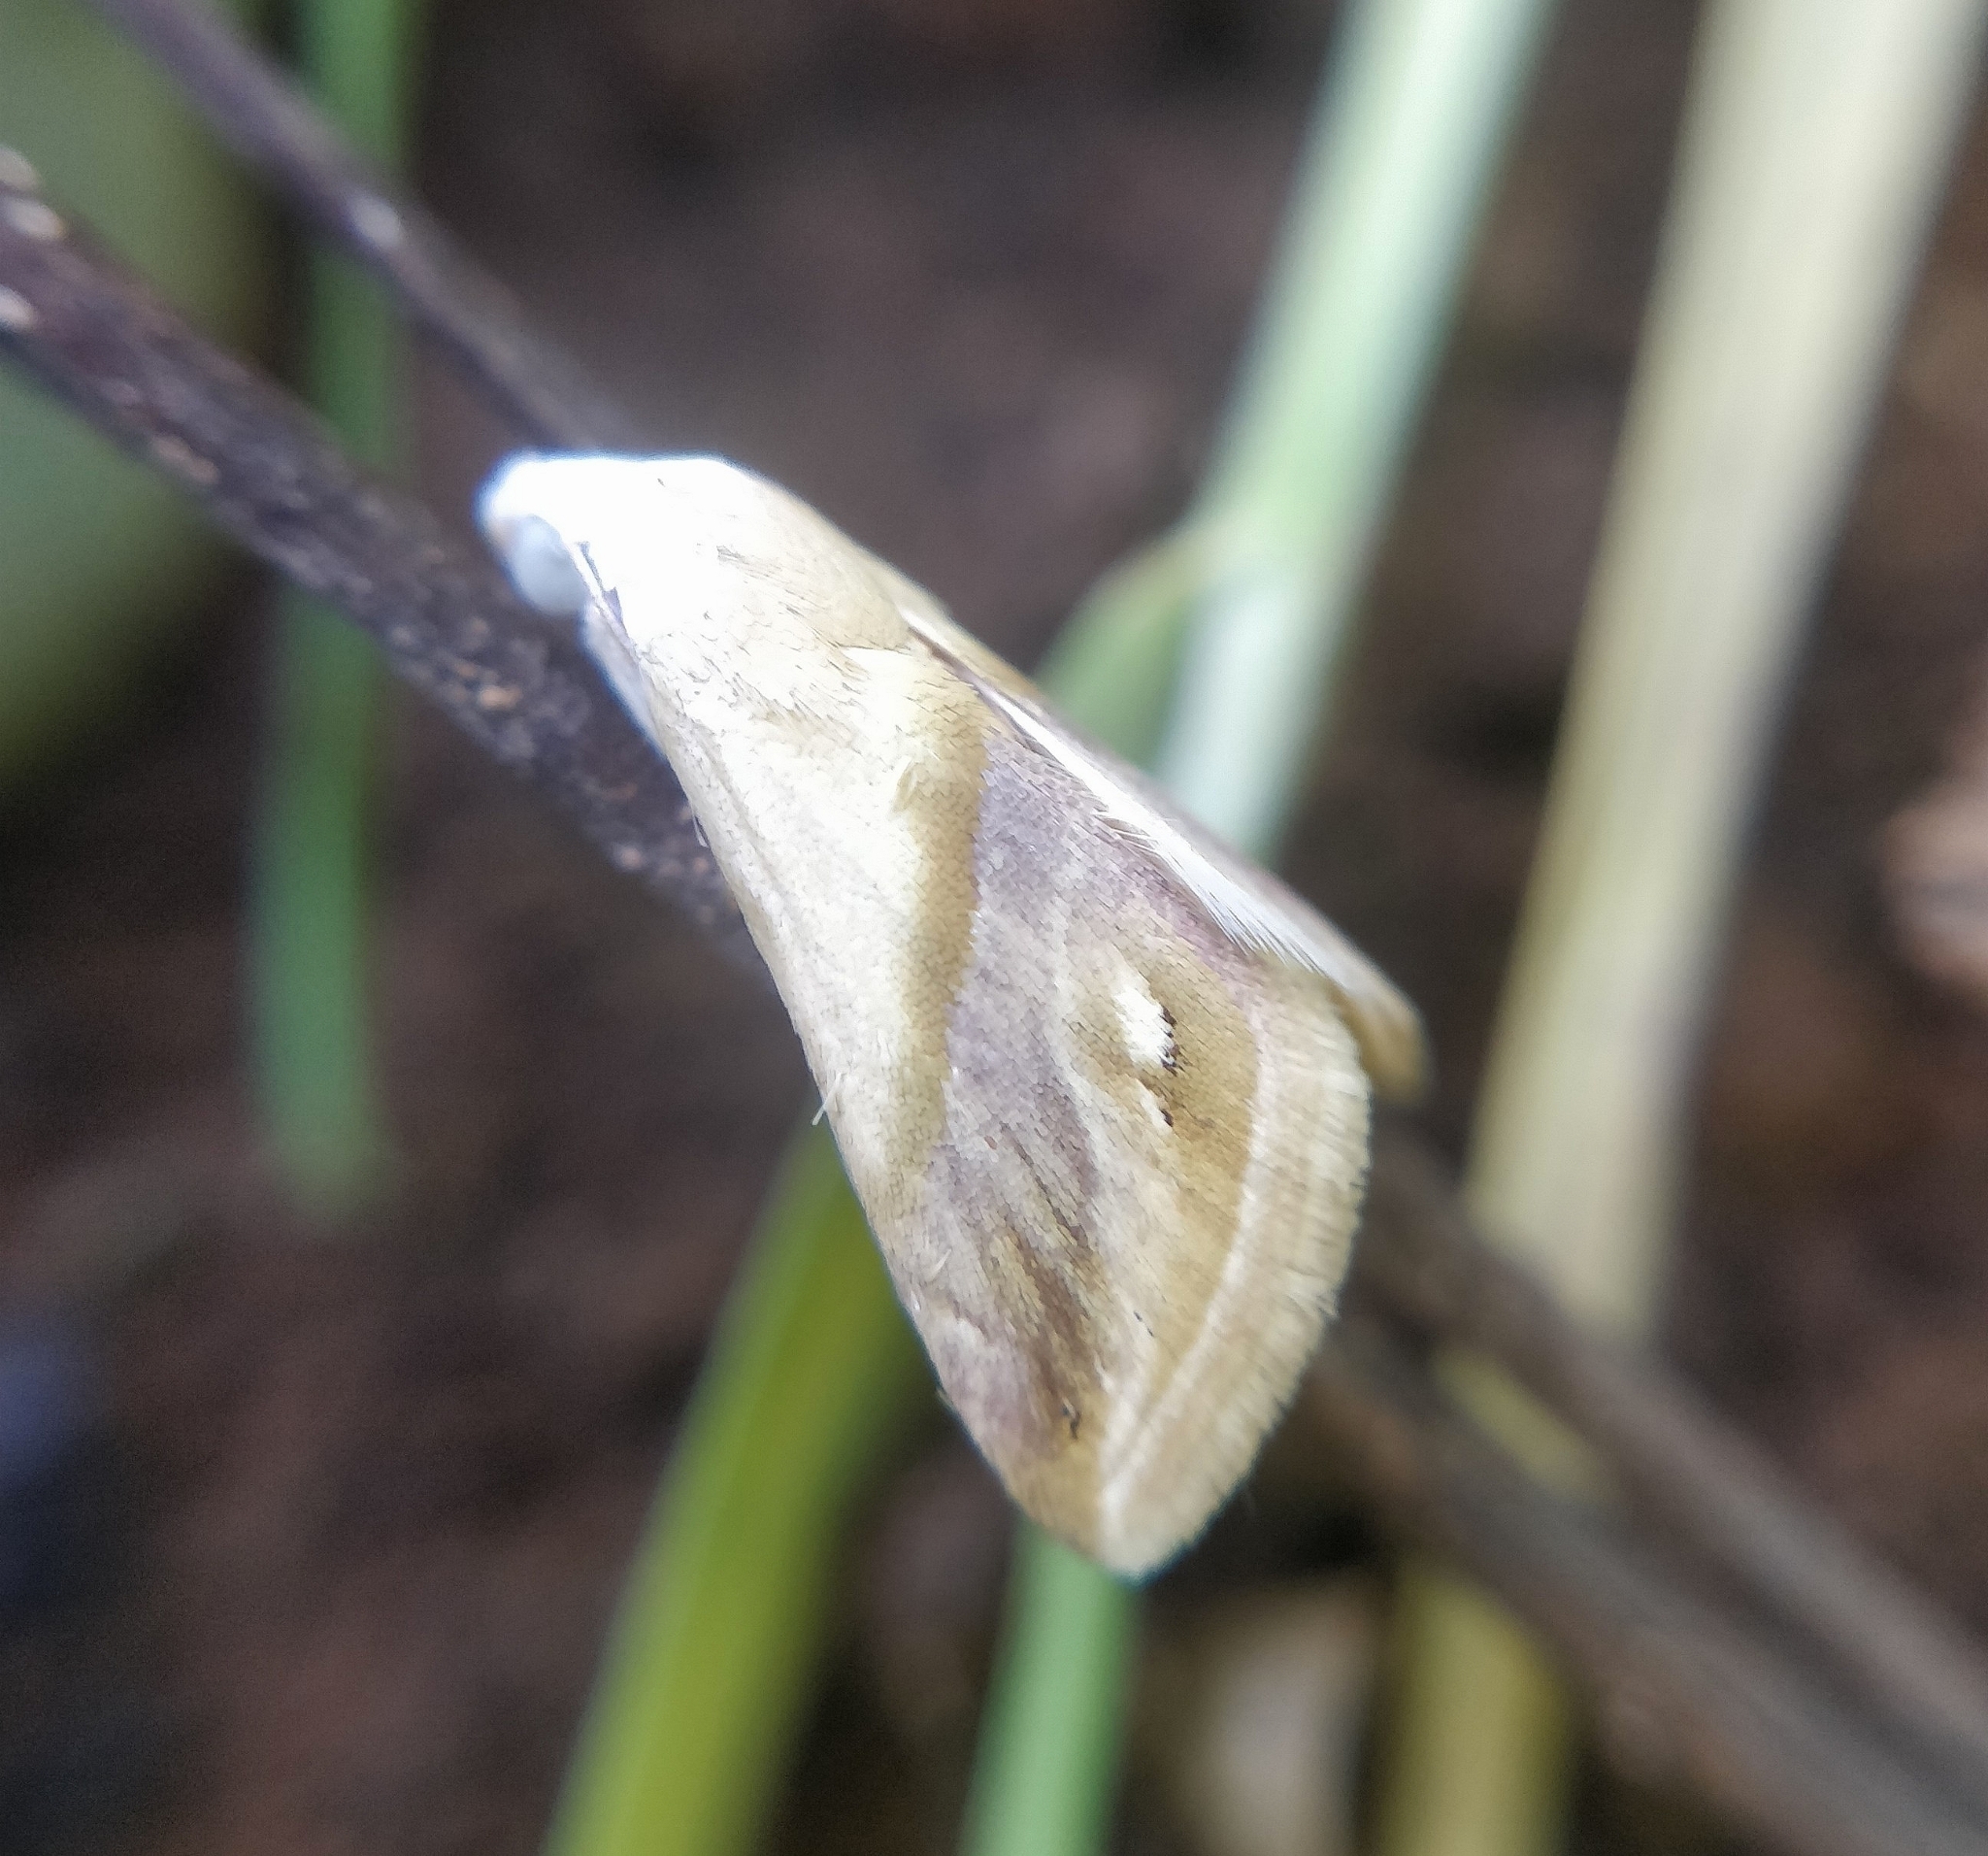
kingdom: Animalia
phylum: Arthropoda
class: Insecta
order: Lepidoptera
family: Noctuidae
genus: Eublemma
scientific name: Eublemma cochylioides
